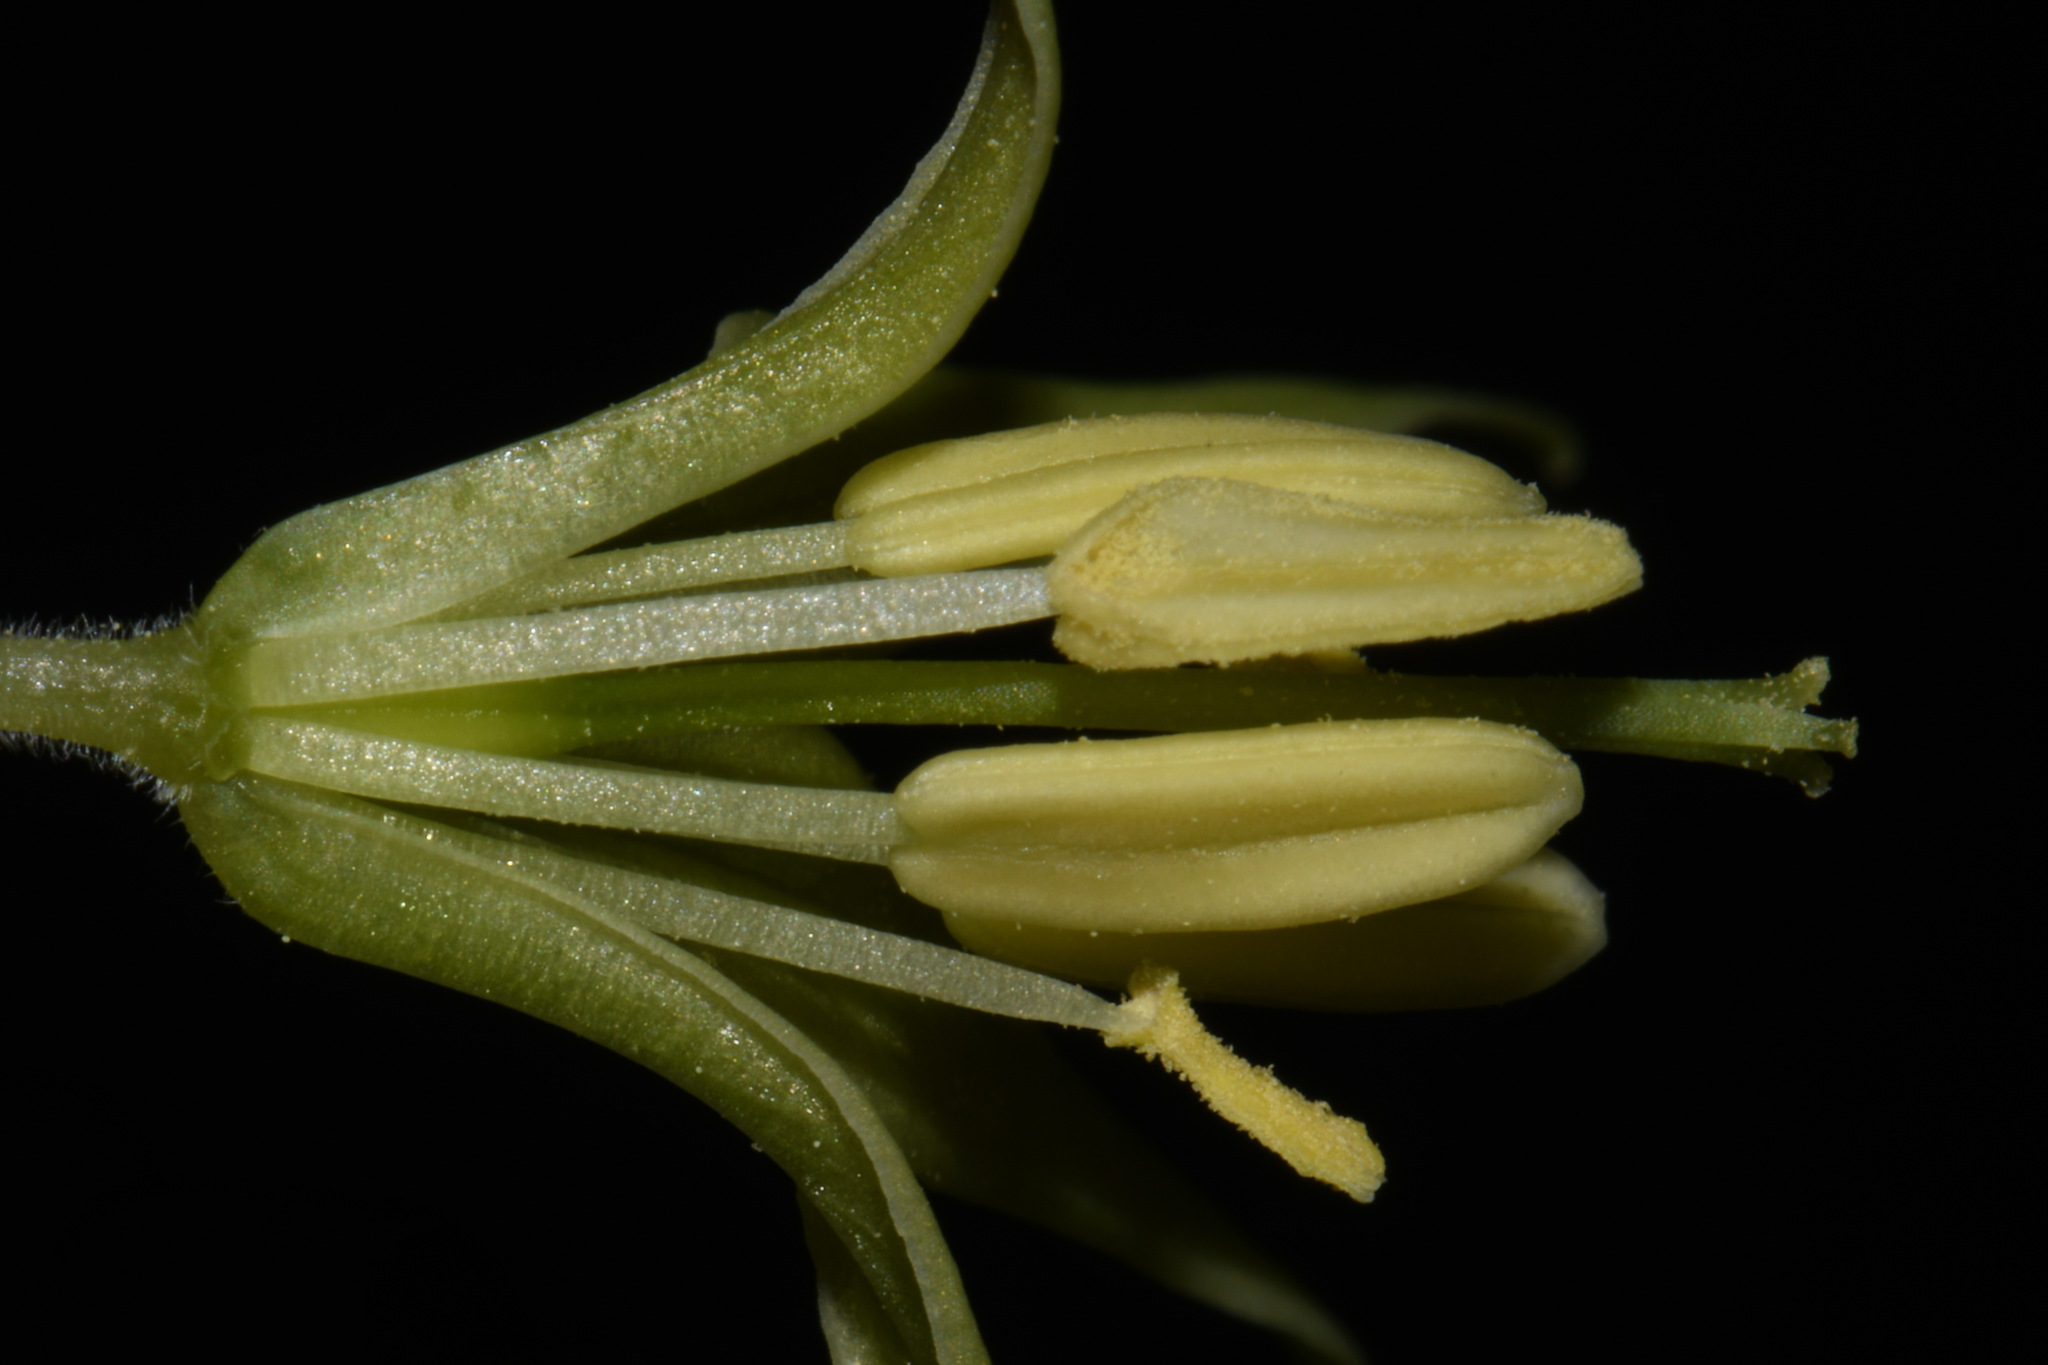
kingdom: Plantae
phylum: Tracheophyta
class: Liliopsida
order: Liliales
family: Liliaceae
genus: Prosartes
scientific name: Prosartes lanuginosa
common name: Hairy mandarin
